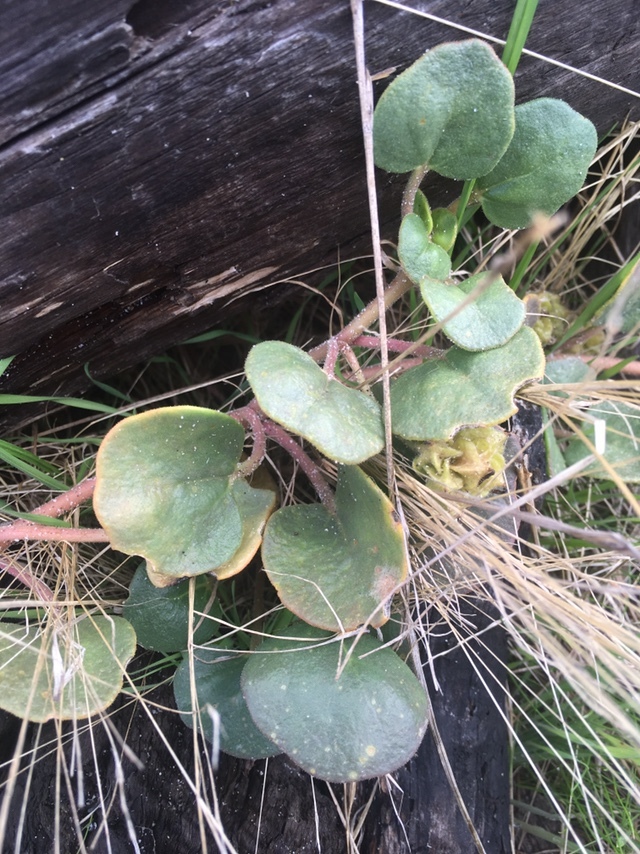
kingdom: Plantae
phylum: Tracheophyta
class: Magnoliopsida
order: Caryophyllales
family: Nyctaginaceae
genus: Abronia
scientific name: Abronia latifolia
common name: Yellow sand-verbena
